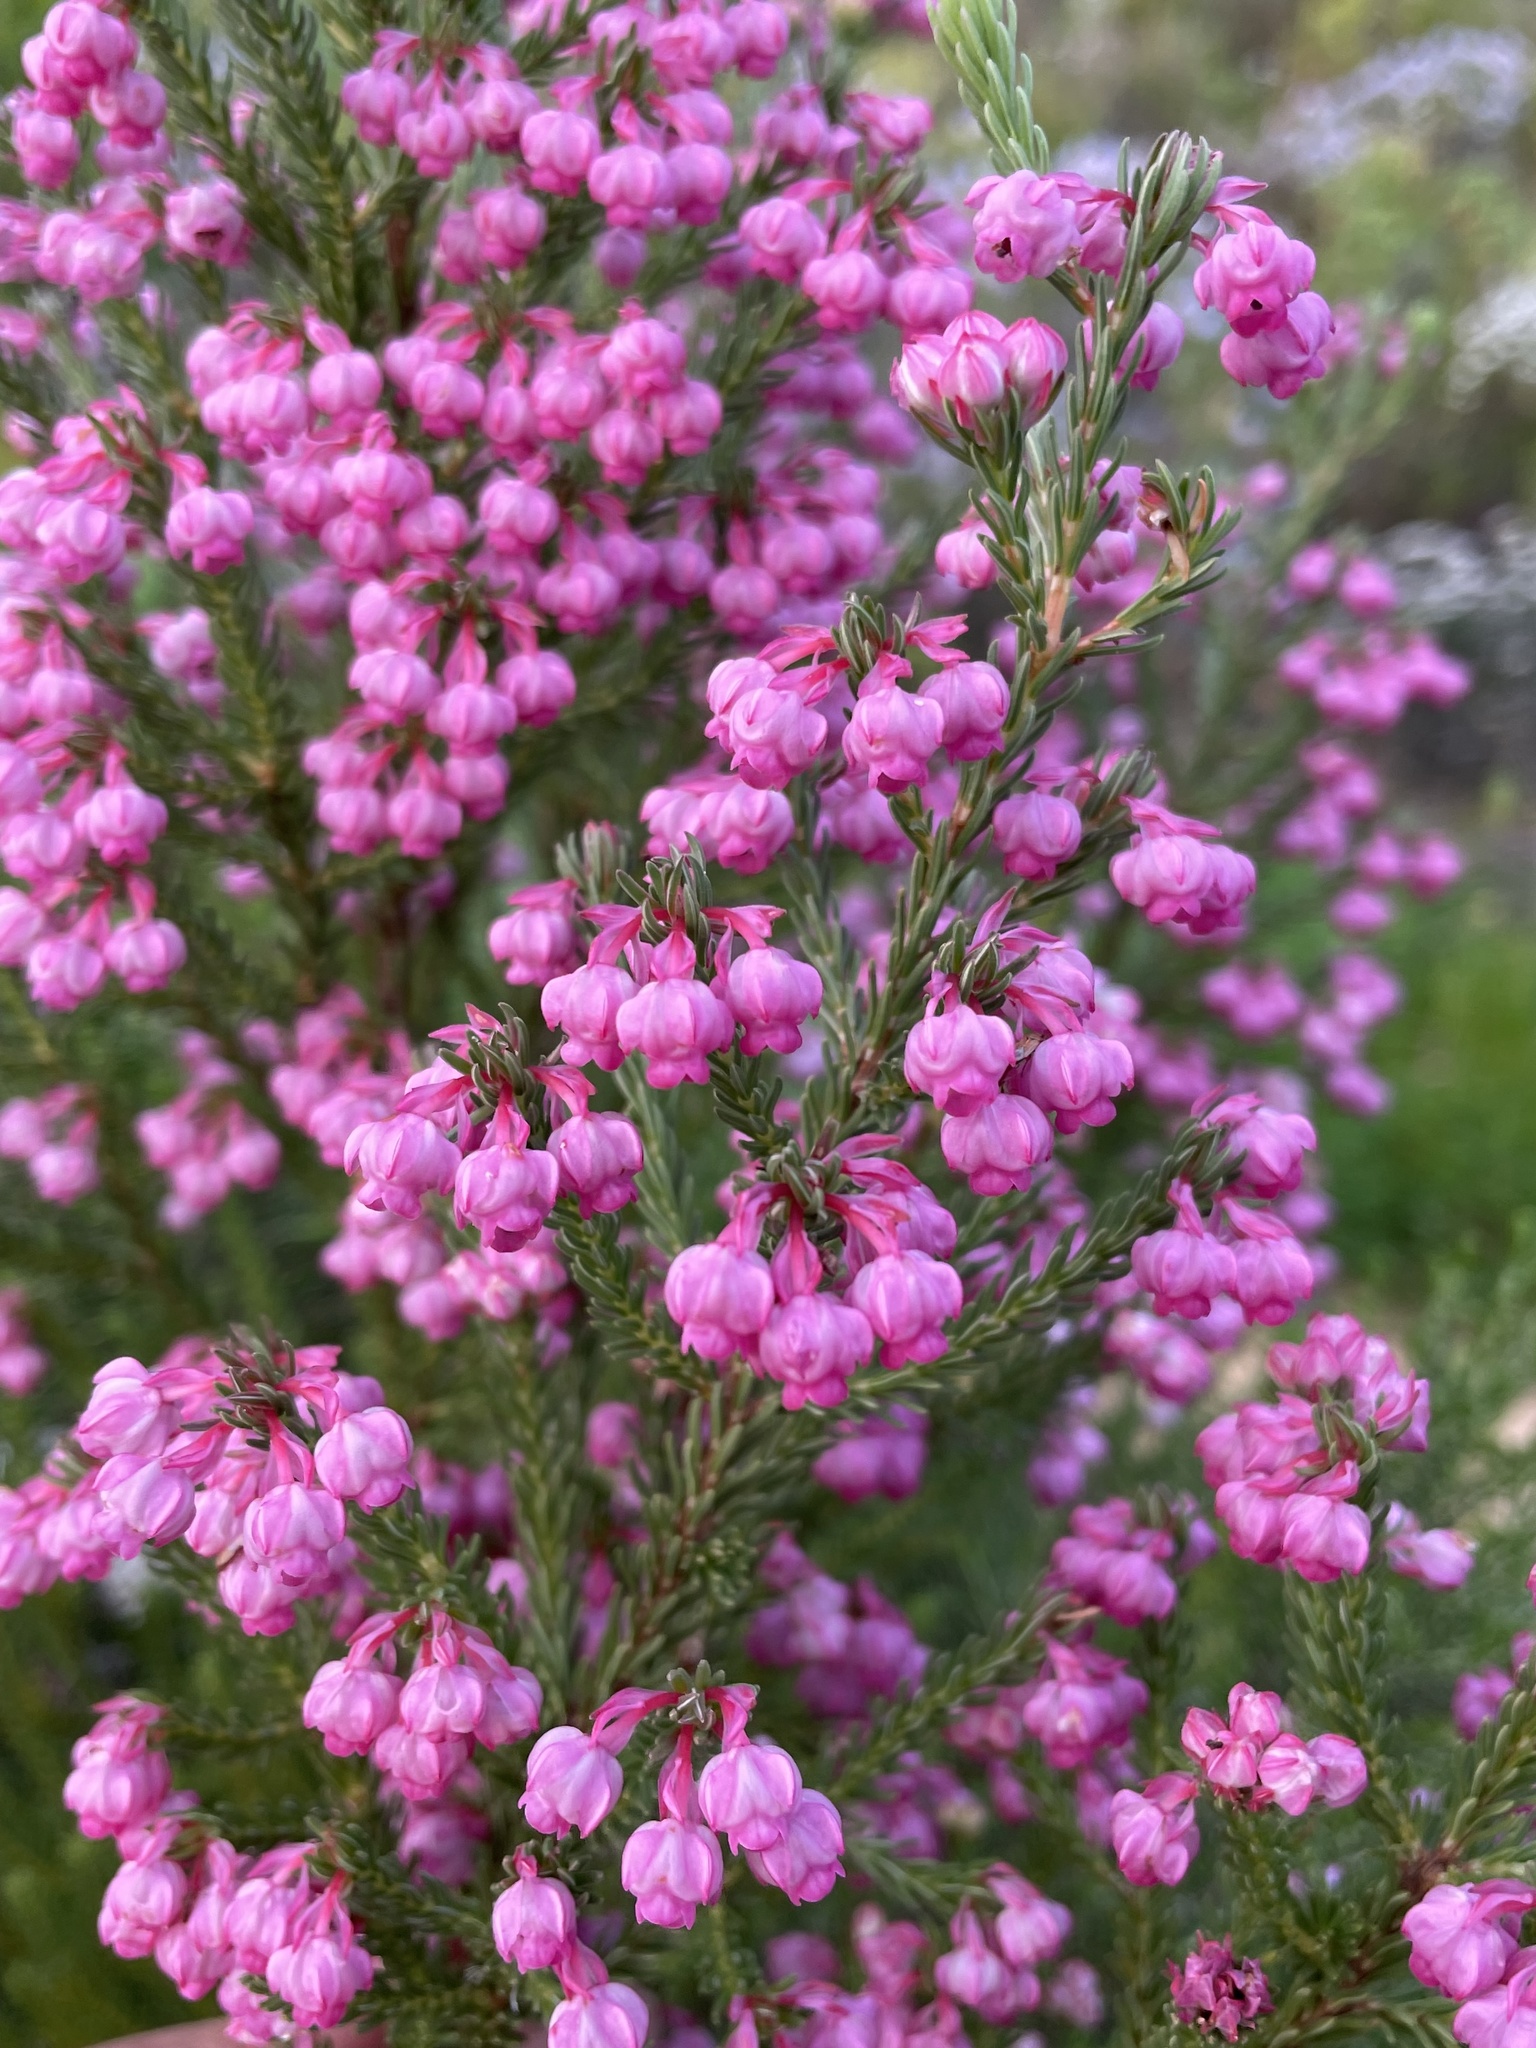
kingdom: Plantae
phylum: Tracheophyta
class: Magnoliopsida
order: Ericales
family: Ericaceae
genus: Erica
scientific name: Erica baccans
